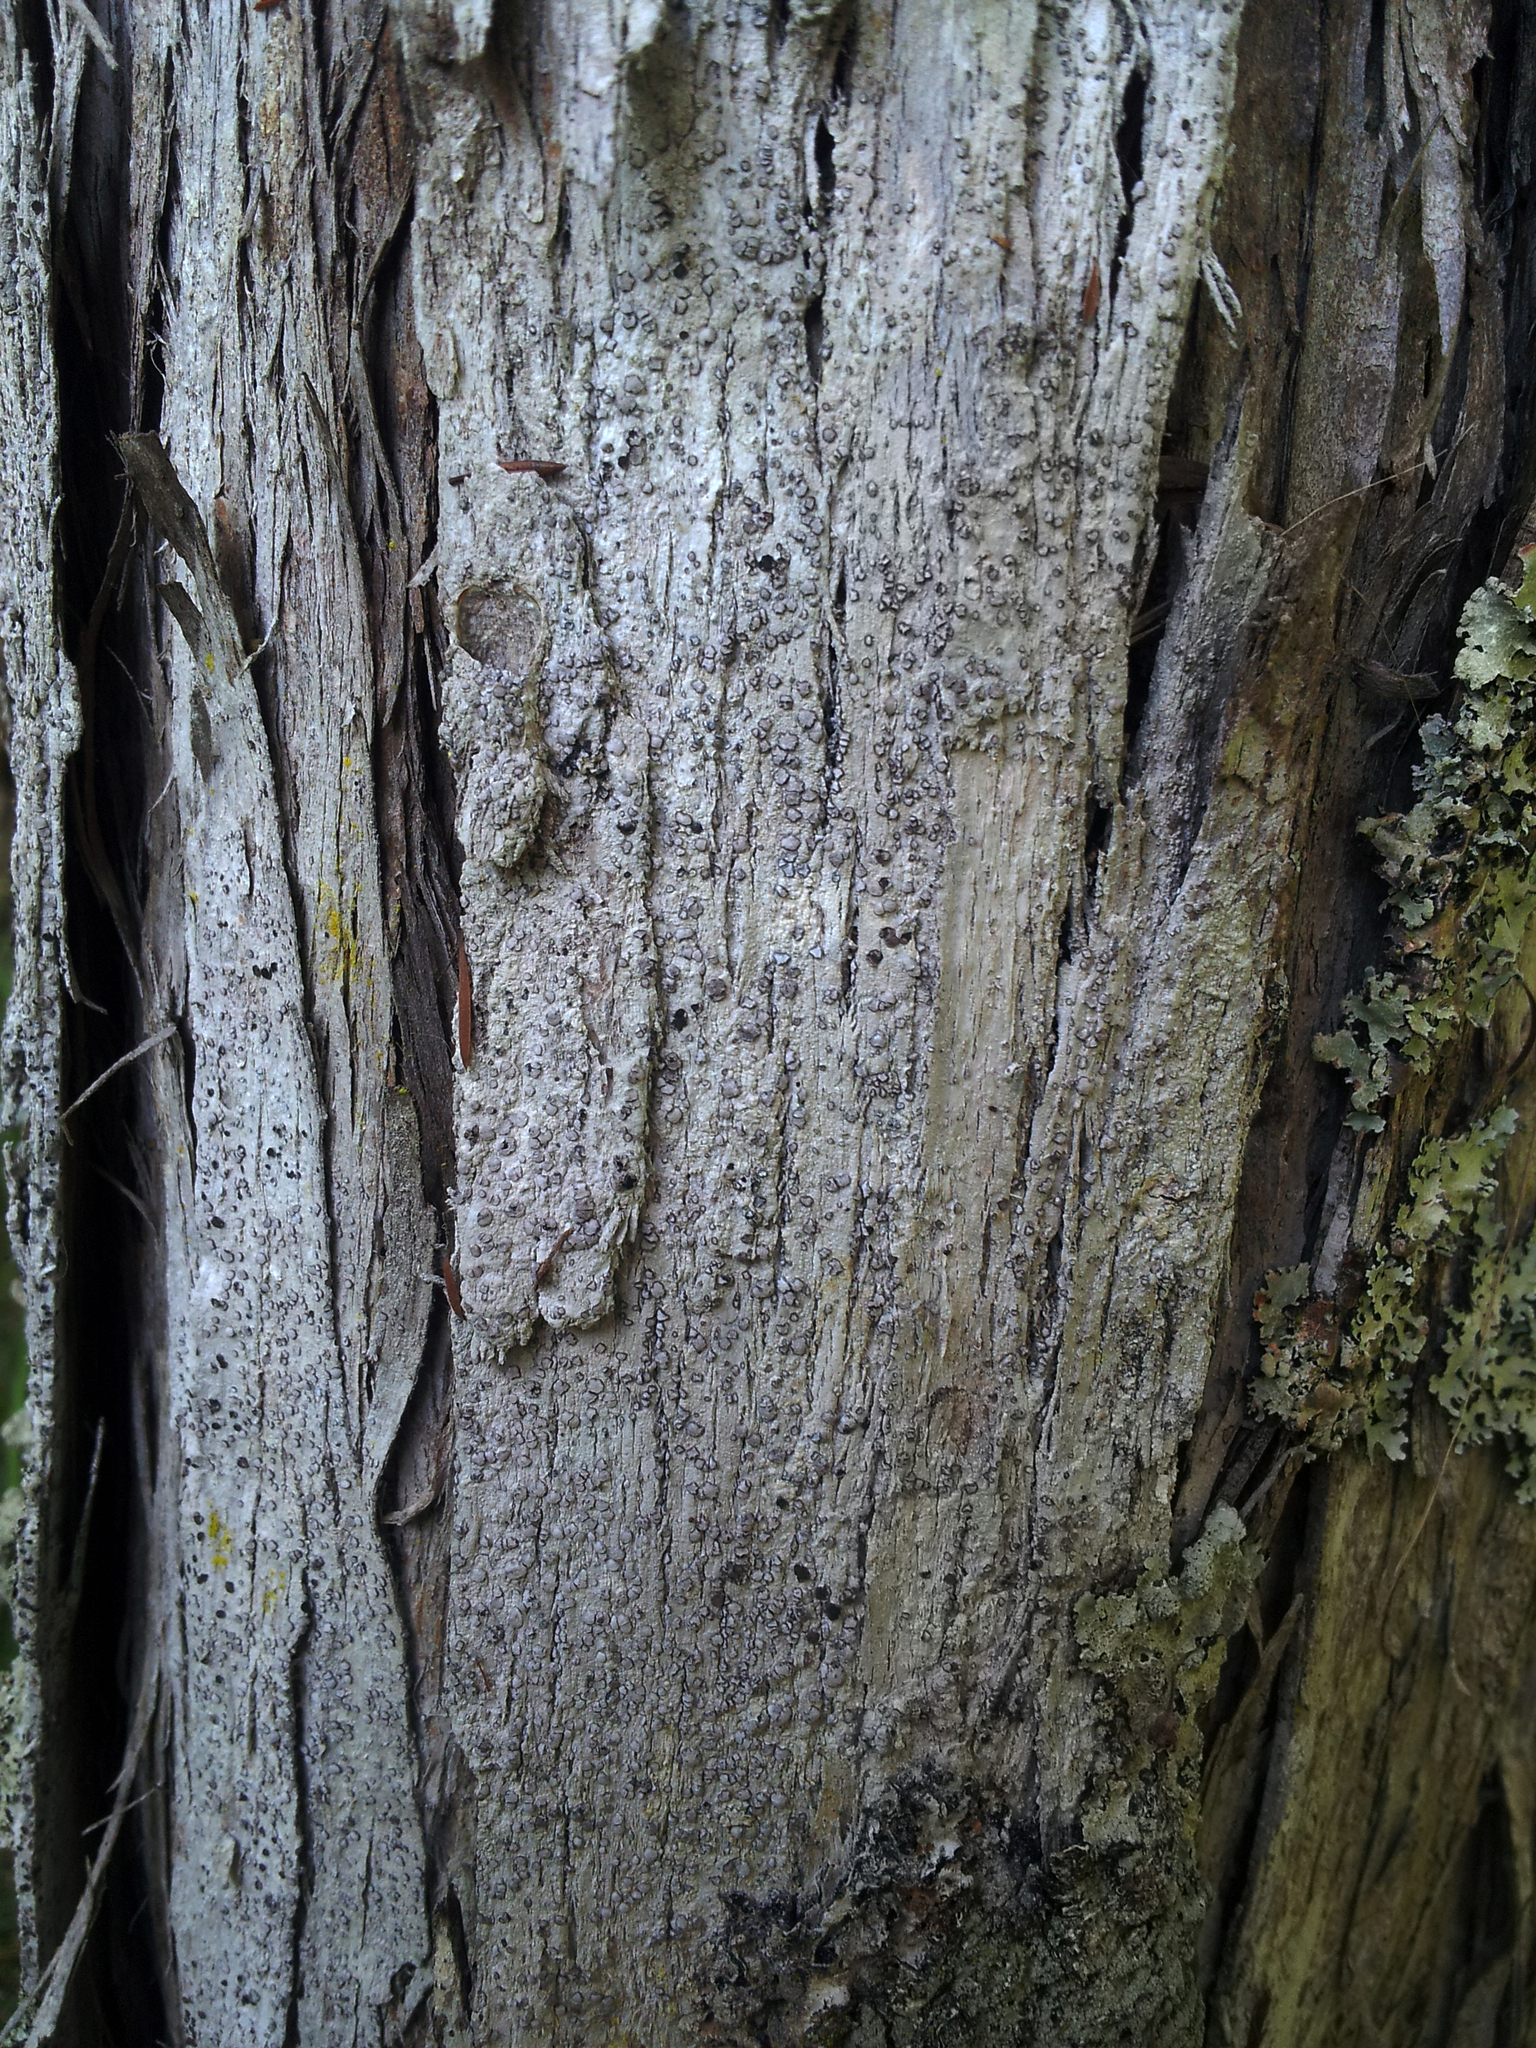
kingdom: Fungi
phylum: Ascomycota
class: Arthoniomycetes
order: Arthoniales
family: Roccellaceae
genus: Lecanactis
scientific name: Lecanactis subfarinosa
